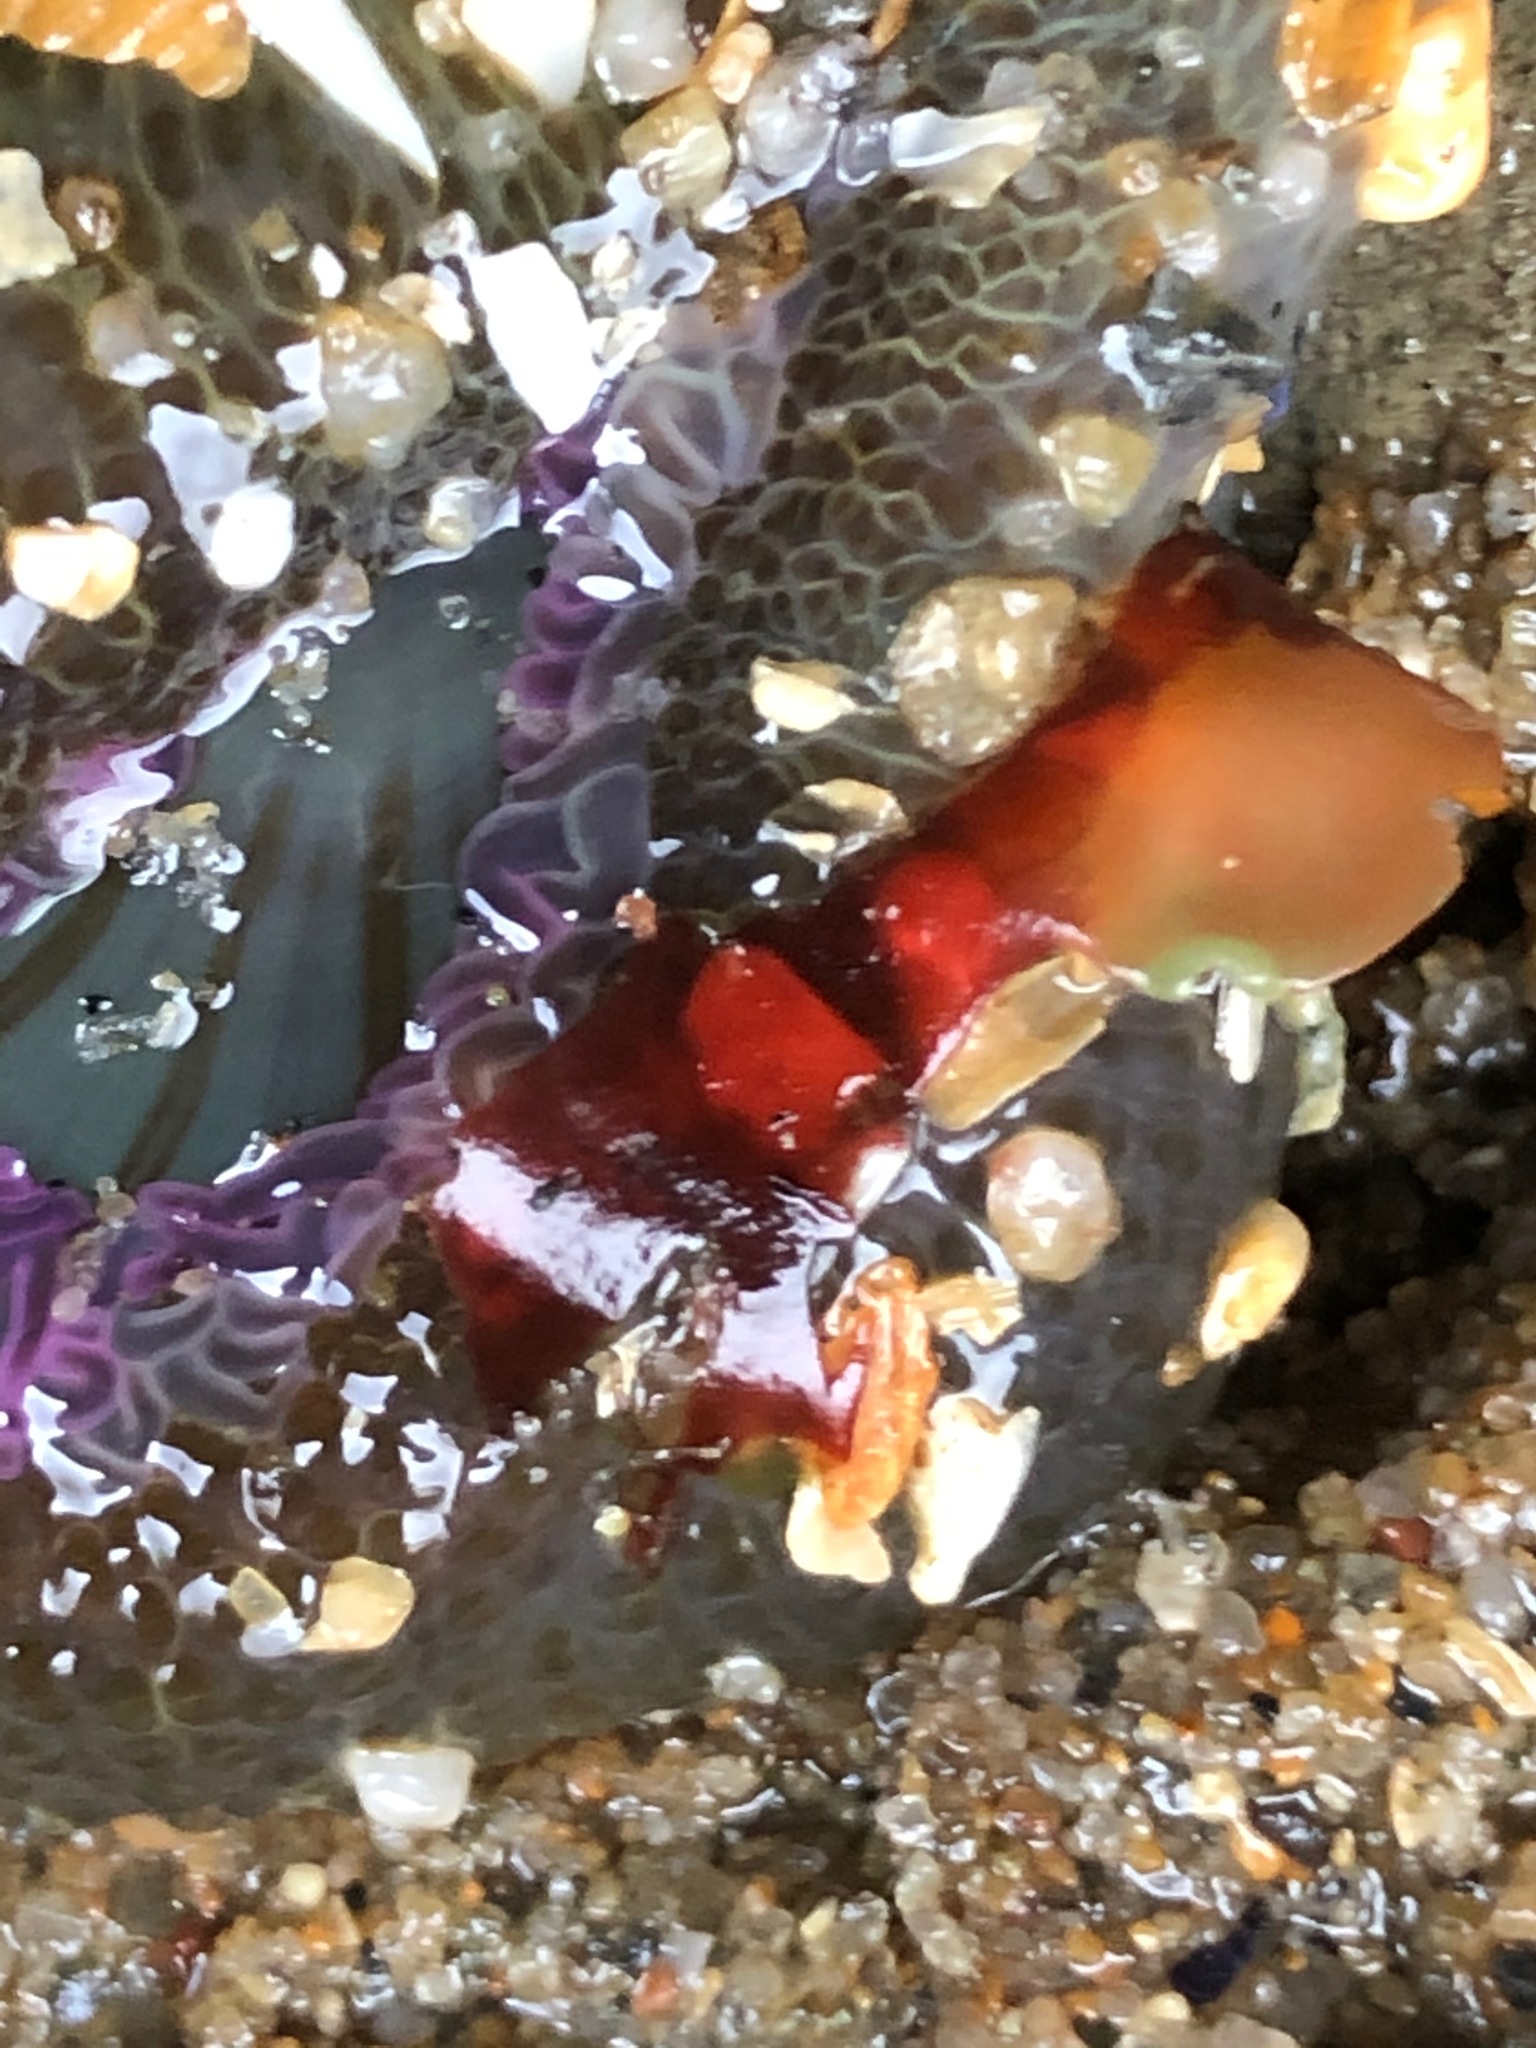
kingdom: Animalia
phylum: Cnidaria
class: Anthozoa
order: Actiniaria
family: Actiniidae
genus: Anthopleura
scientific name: Anthopleura elegantissima
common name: Clonal anemone
